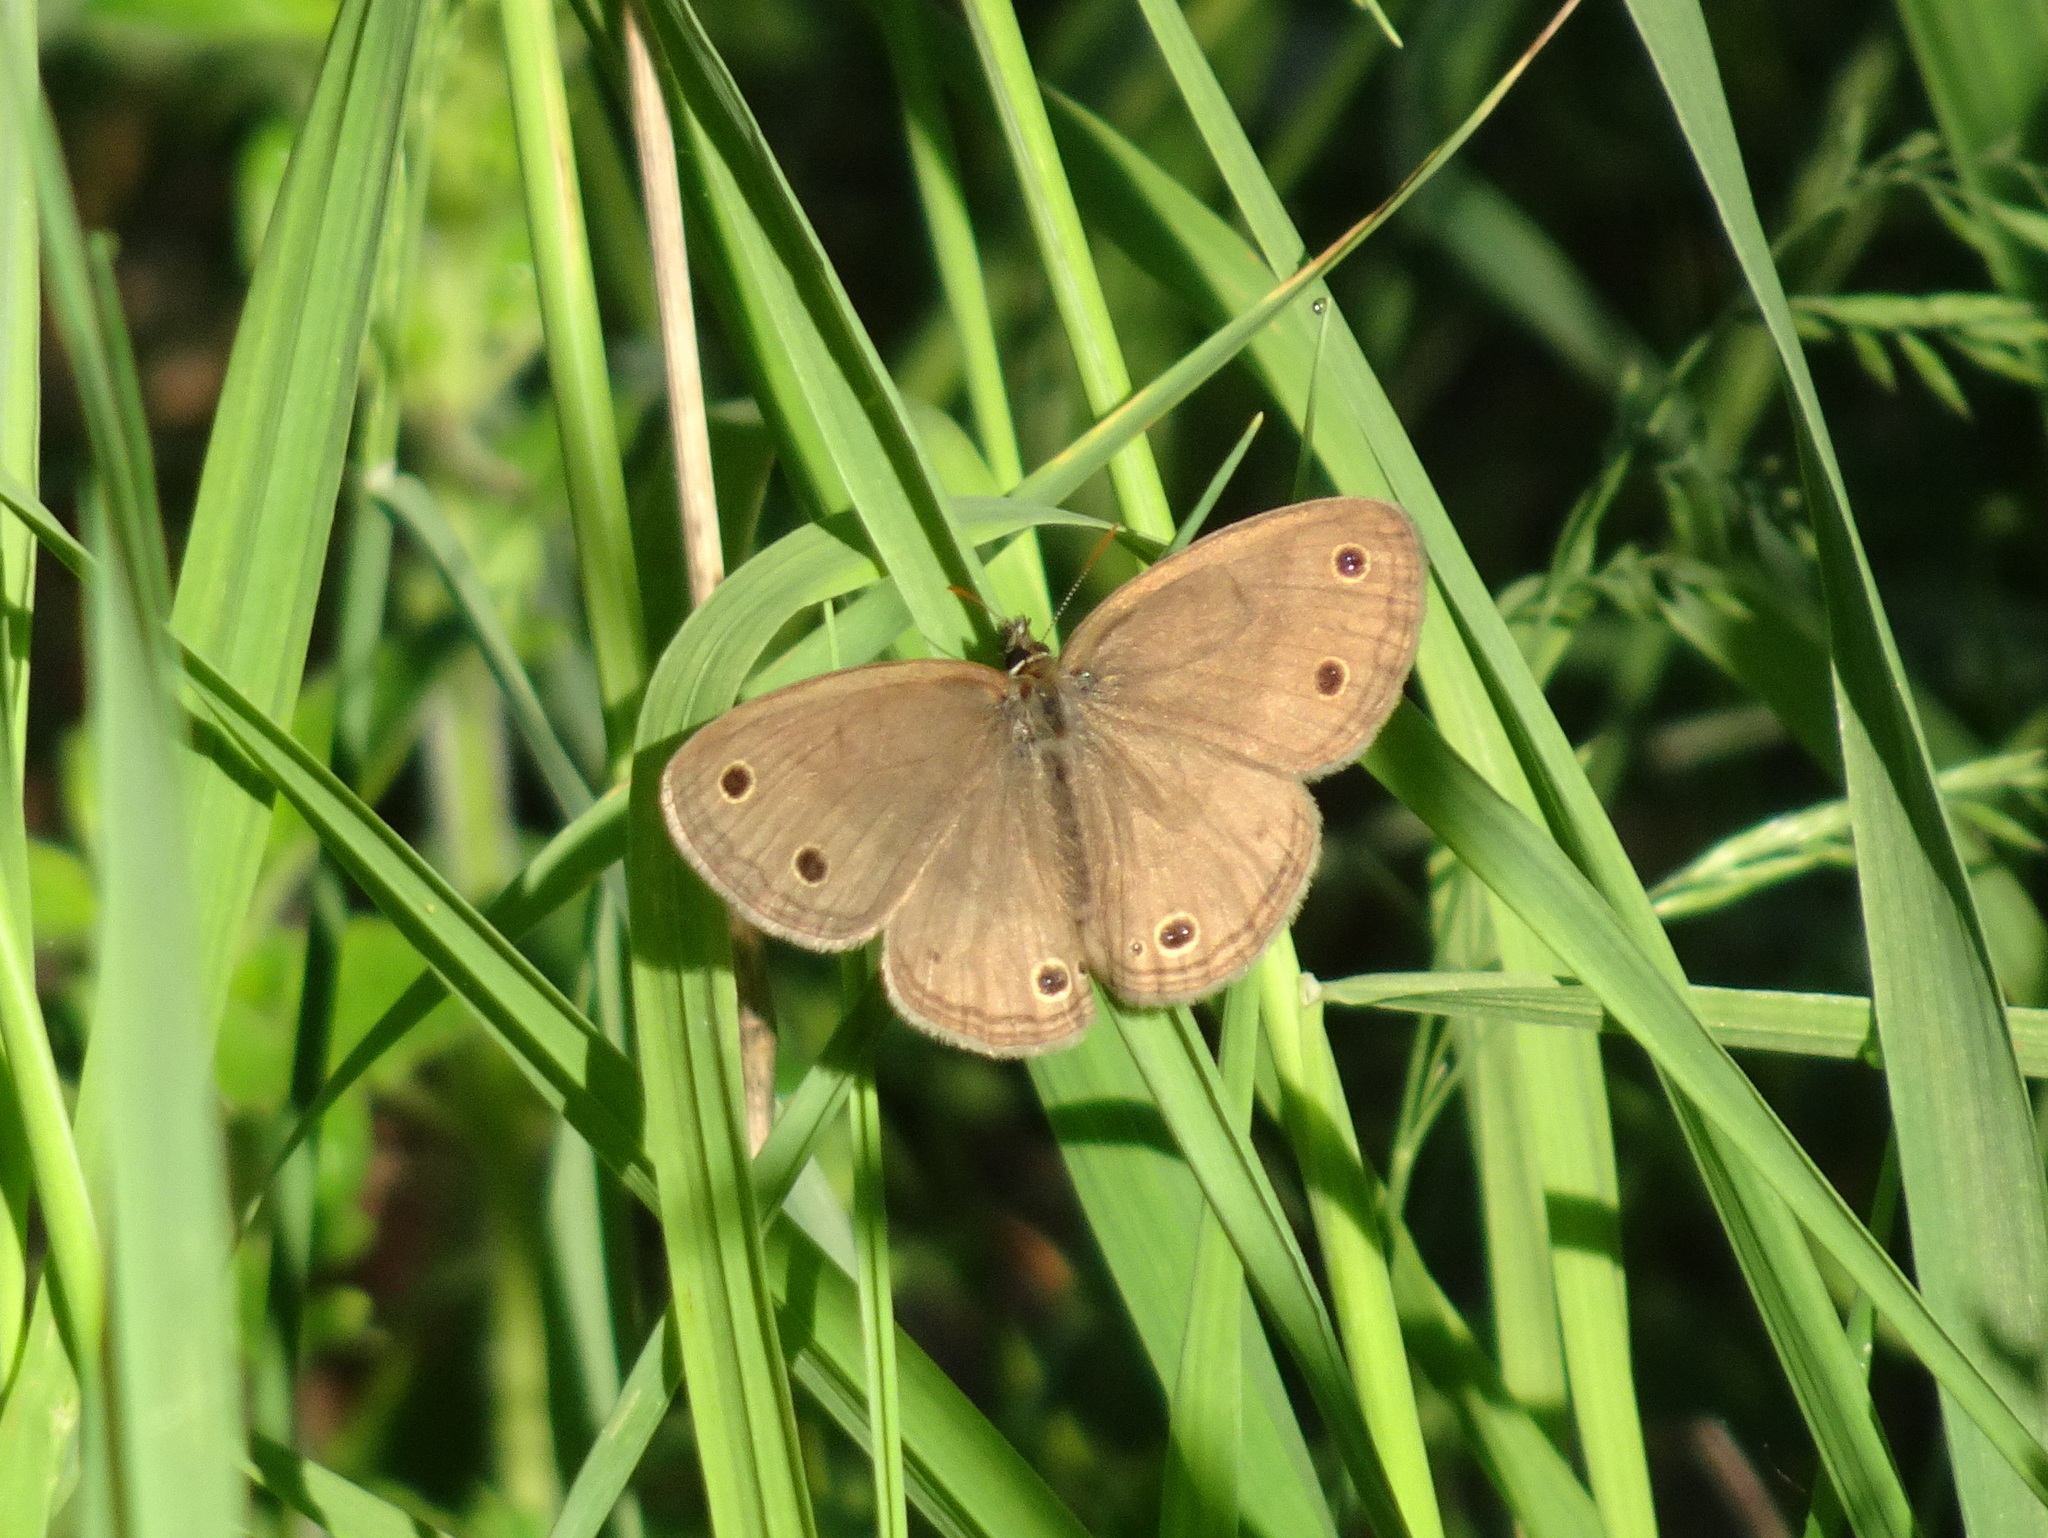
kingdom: Animalia
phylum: Arthropoda
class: Insecta
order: Lepidoptera
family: Nymphalidae
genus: Euptychia
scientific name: Euptychia cymela
